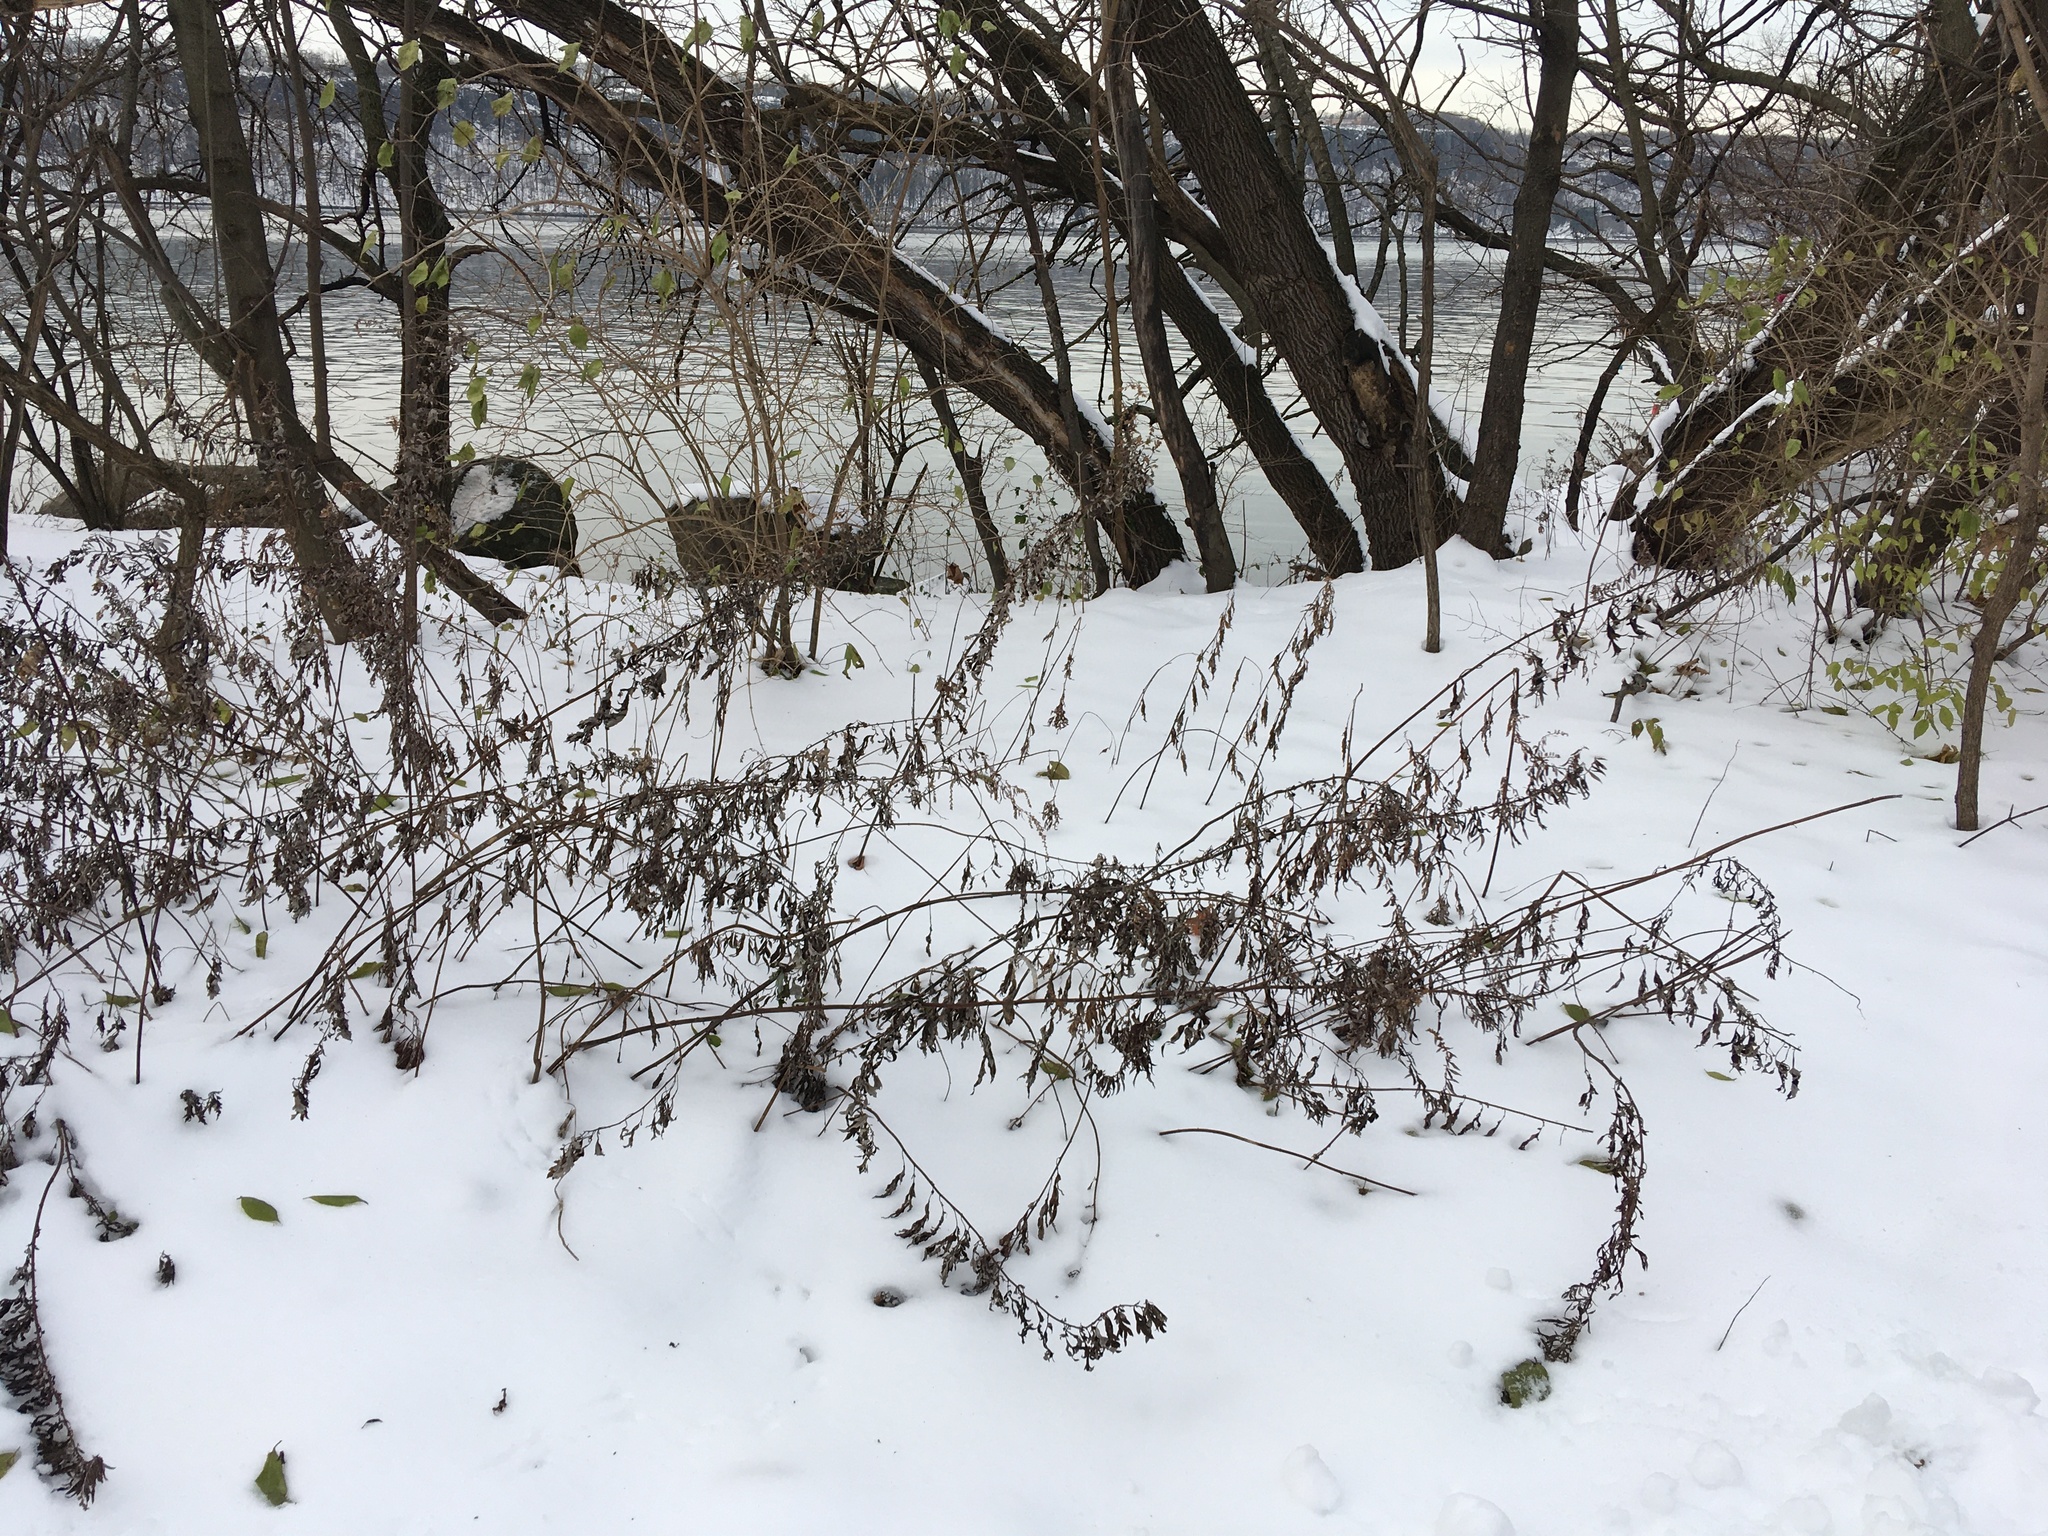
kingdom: Plantae
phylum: Tracheophyta
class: Magnoliopsida
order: Asterales
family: Asteraceae
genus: Artemisia
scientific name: Artemisia vulgaris
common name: Mugwort
